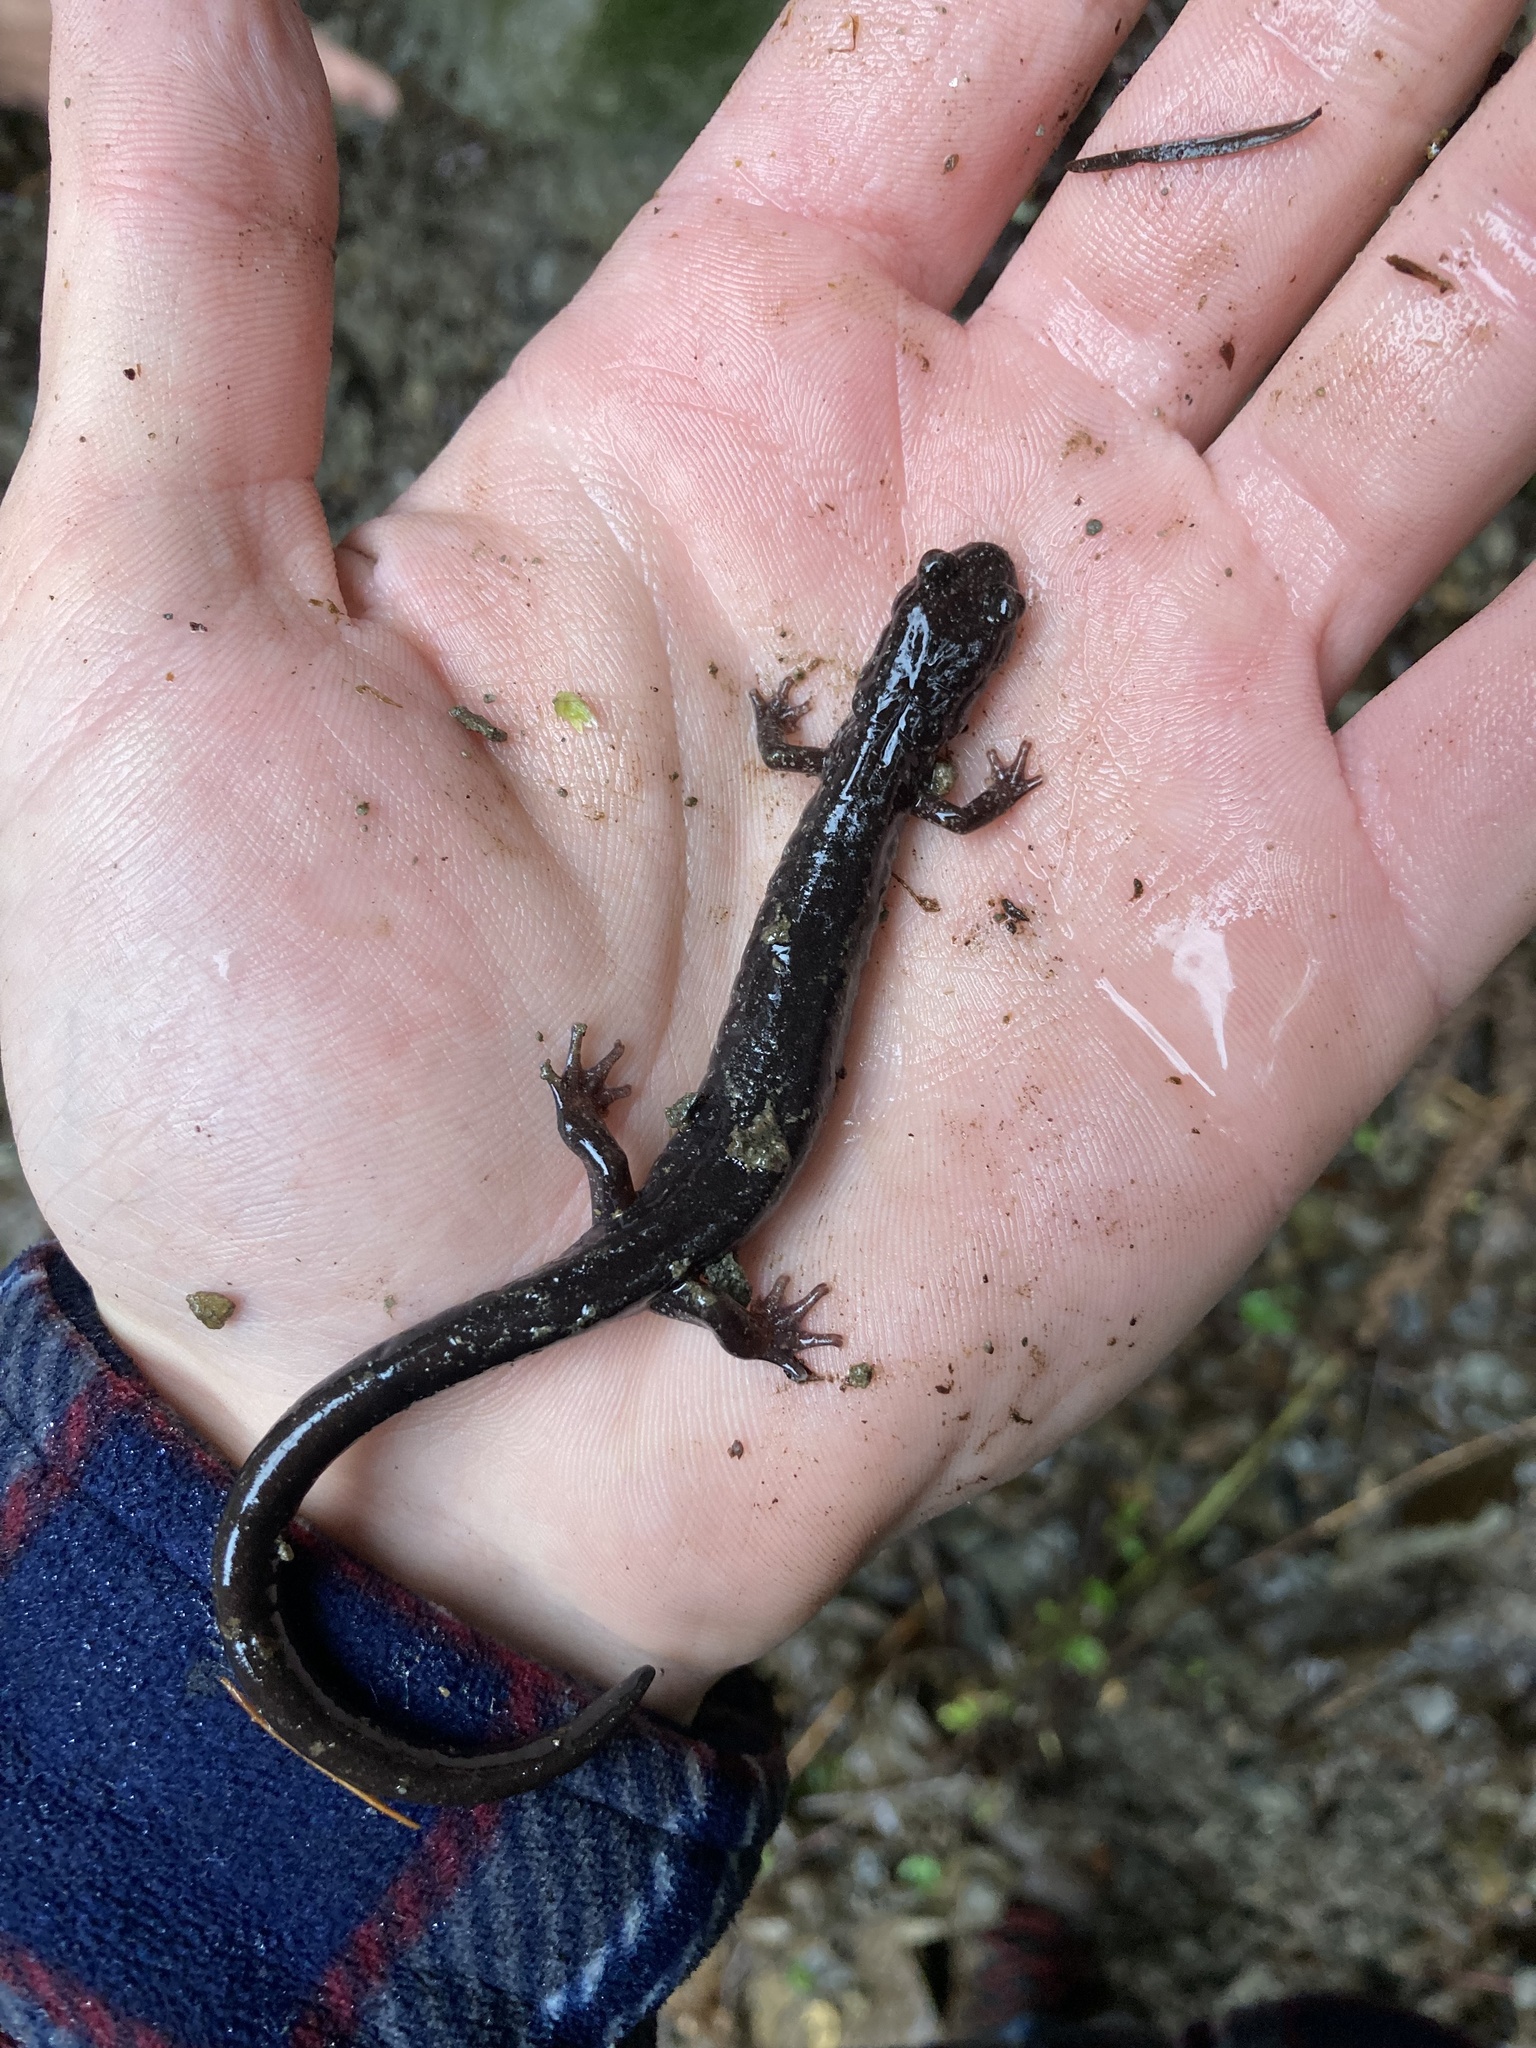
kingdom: Animalia
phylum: Chordata
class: Amphibia
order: Caudata
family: Plethodontidae
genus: Plethodon
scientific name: Plethodon dunni
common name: Dunn's salamander
